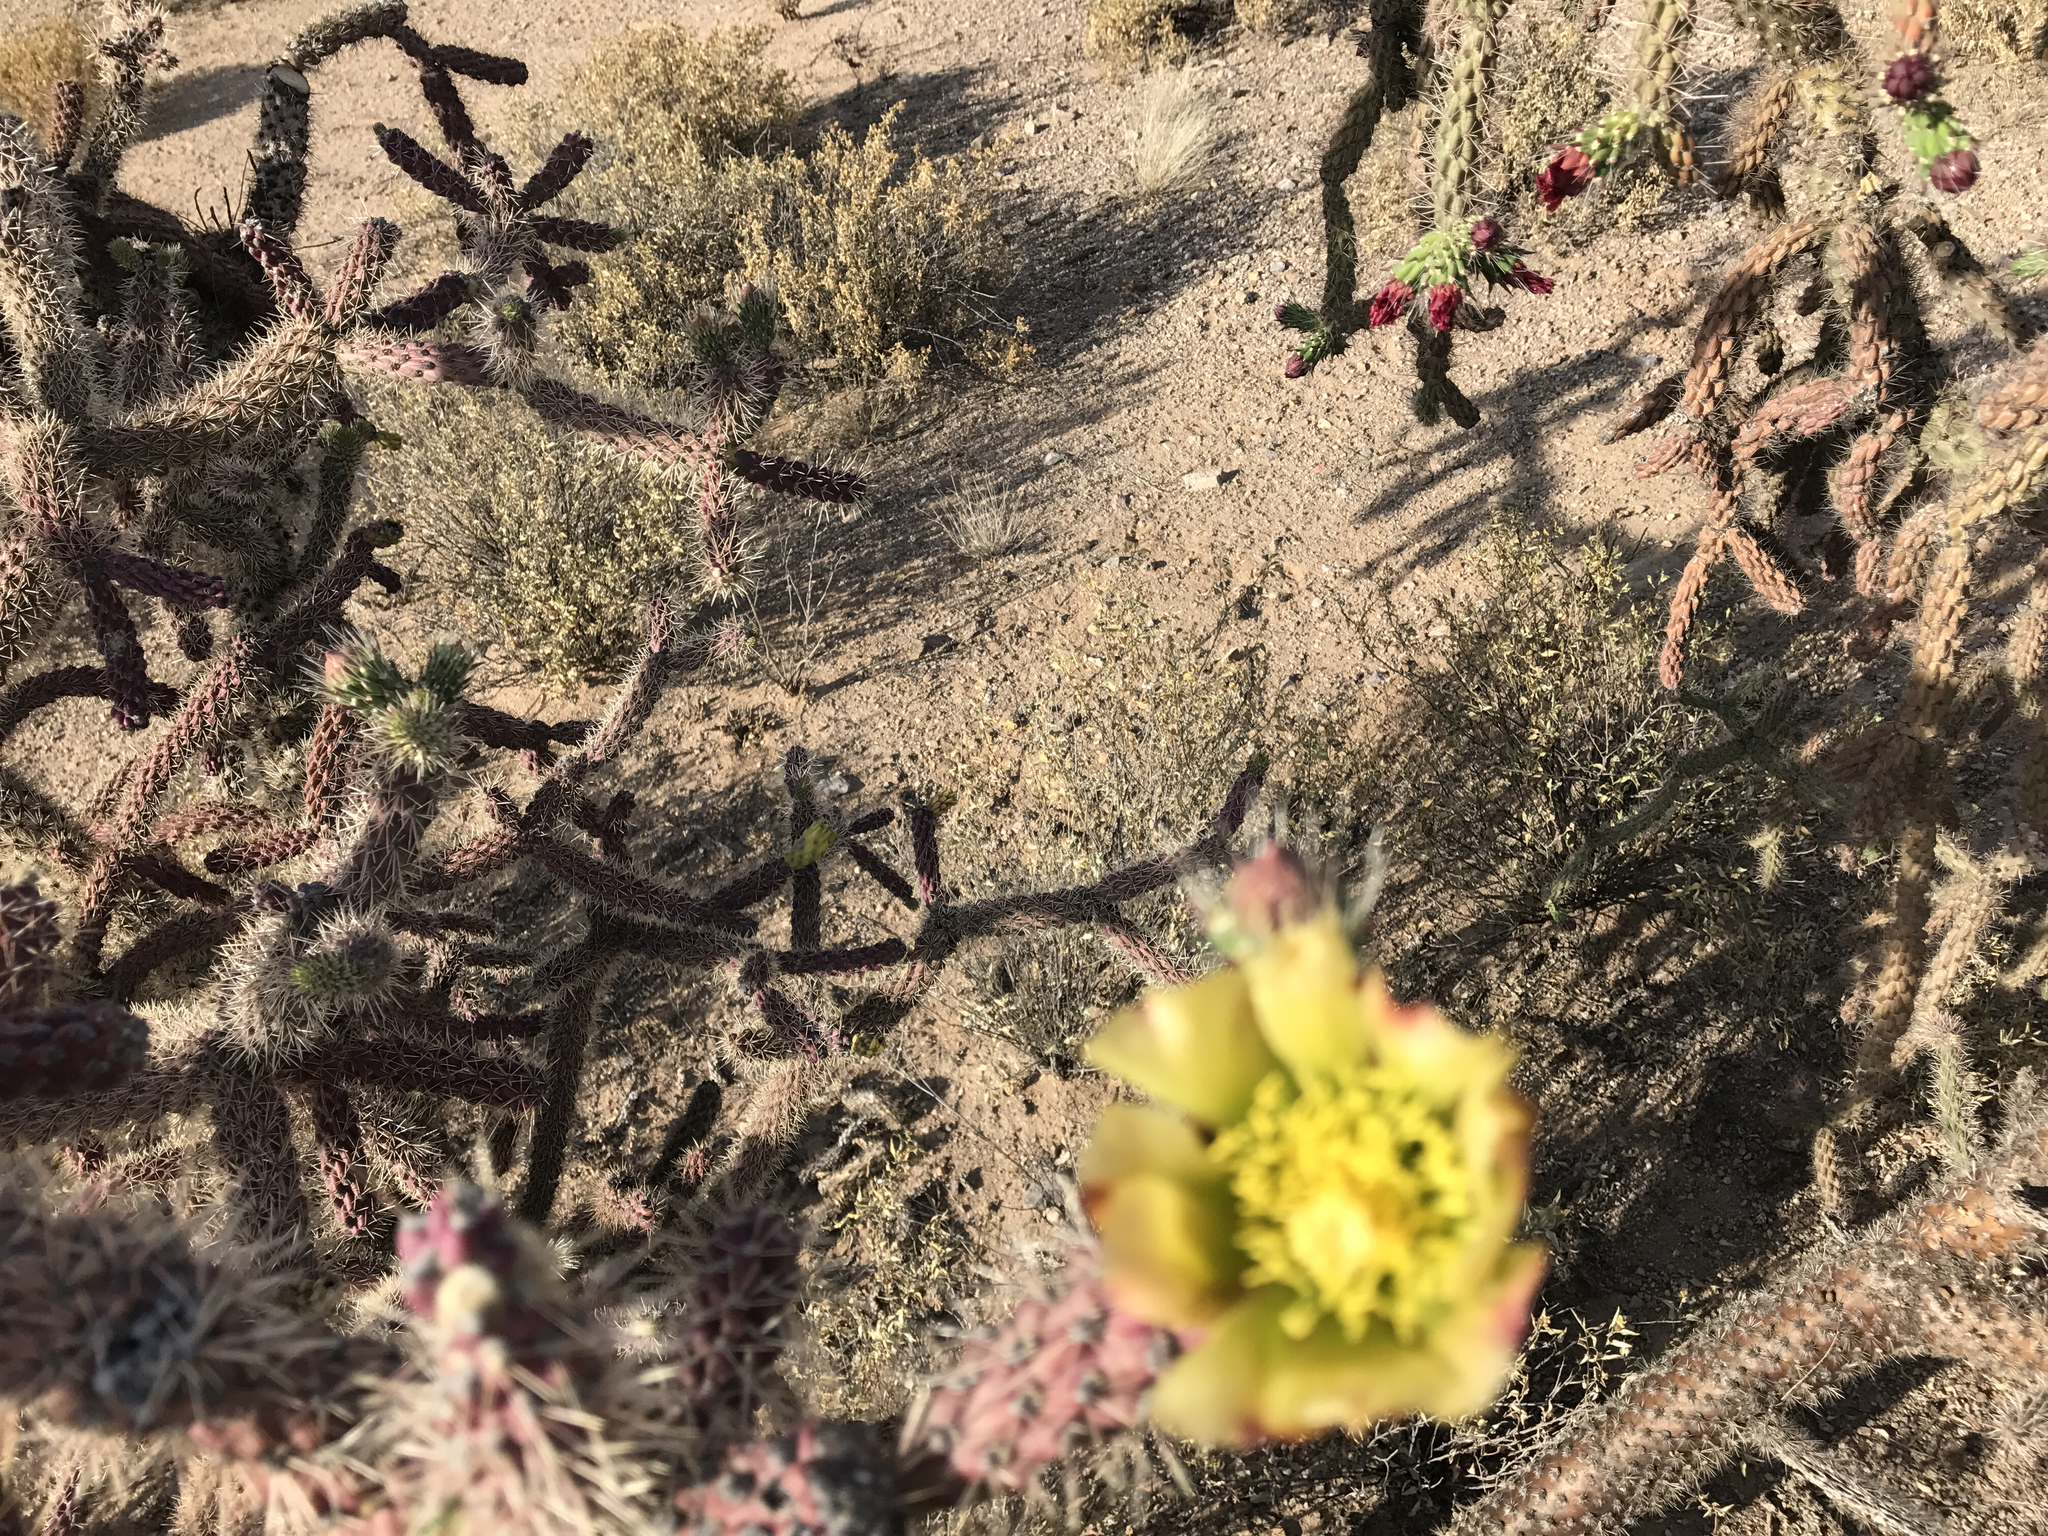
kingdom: Plantae
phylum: Tracheophyta
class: Magnoliopsida
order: Caryophyllales
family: Cactaceae
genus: Cylindropuntia
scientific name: Cylindropuntia imbricata
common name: Candelabrum cactus
